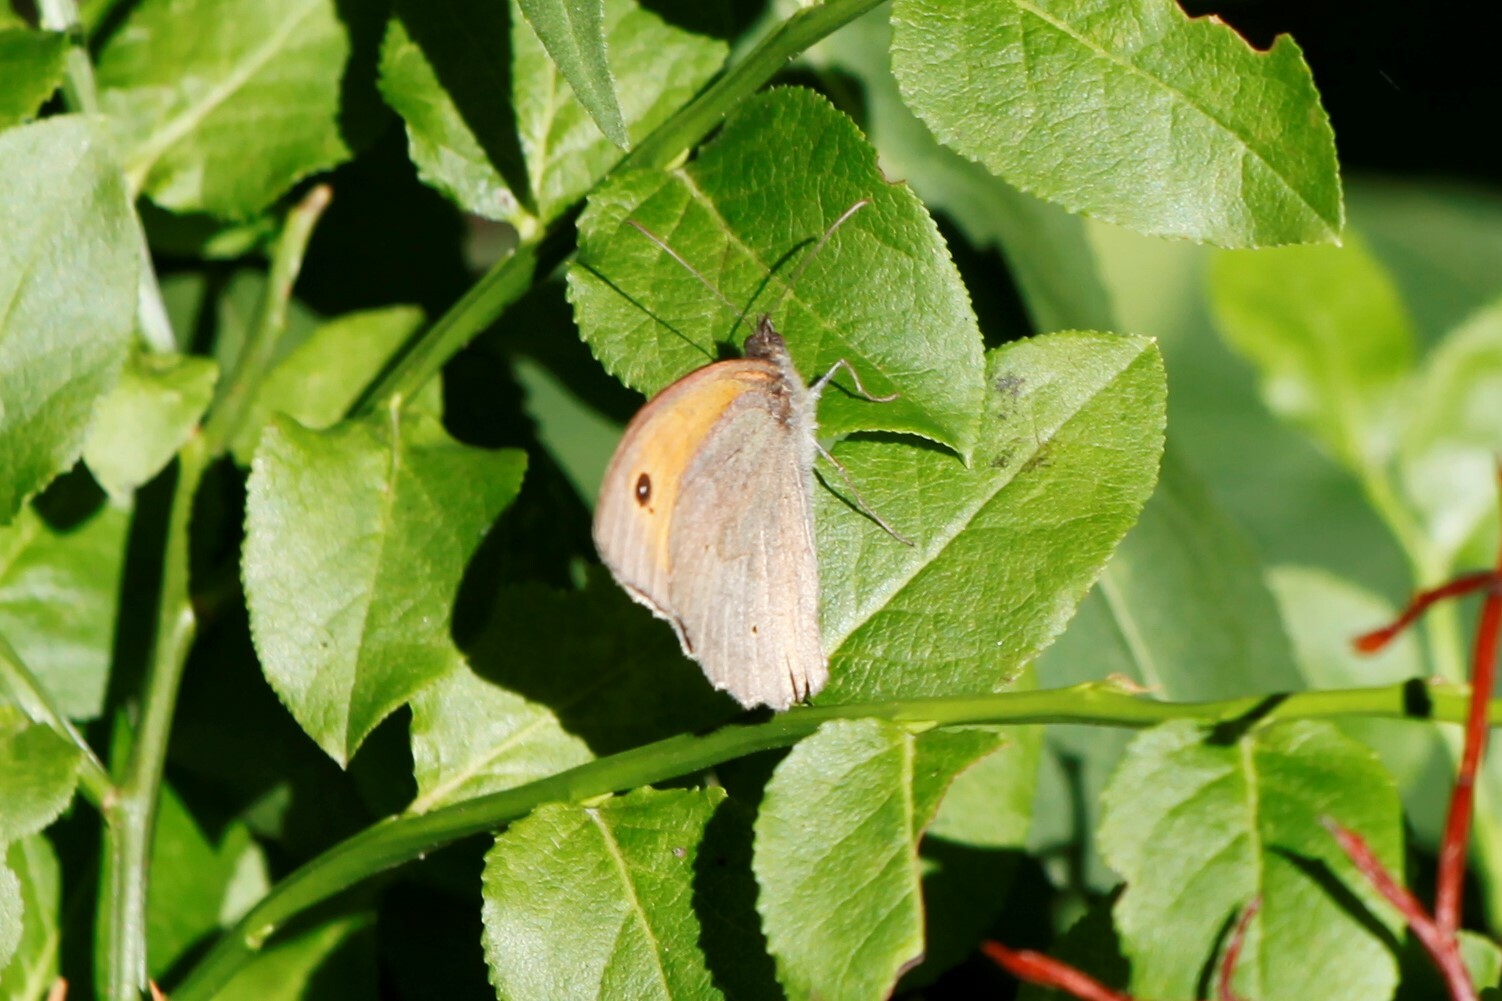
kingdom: Animalia
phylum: Arthropoda
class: Insecta
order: Lepidoptera
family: Nymphalidae
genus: Maniola
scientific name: Maniola jurtina
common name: Meadow brown
